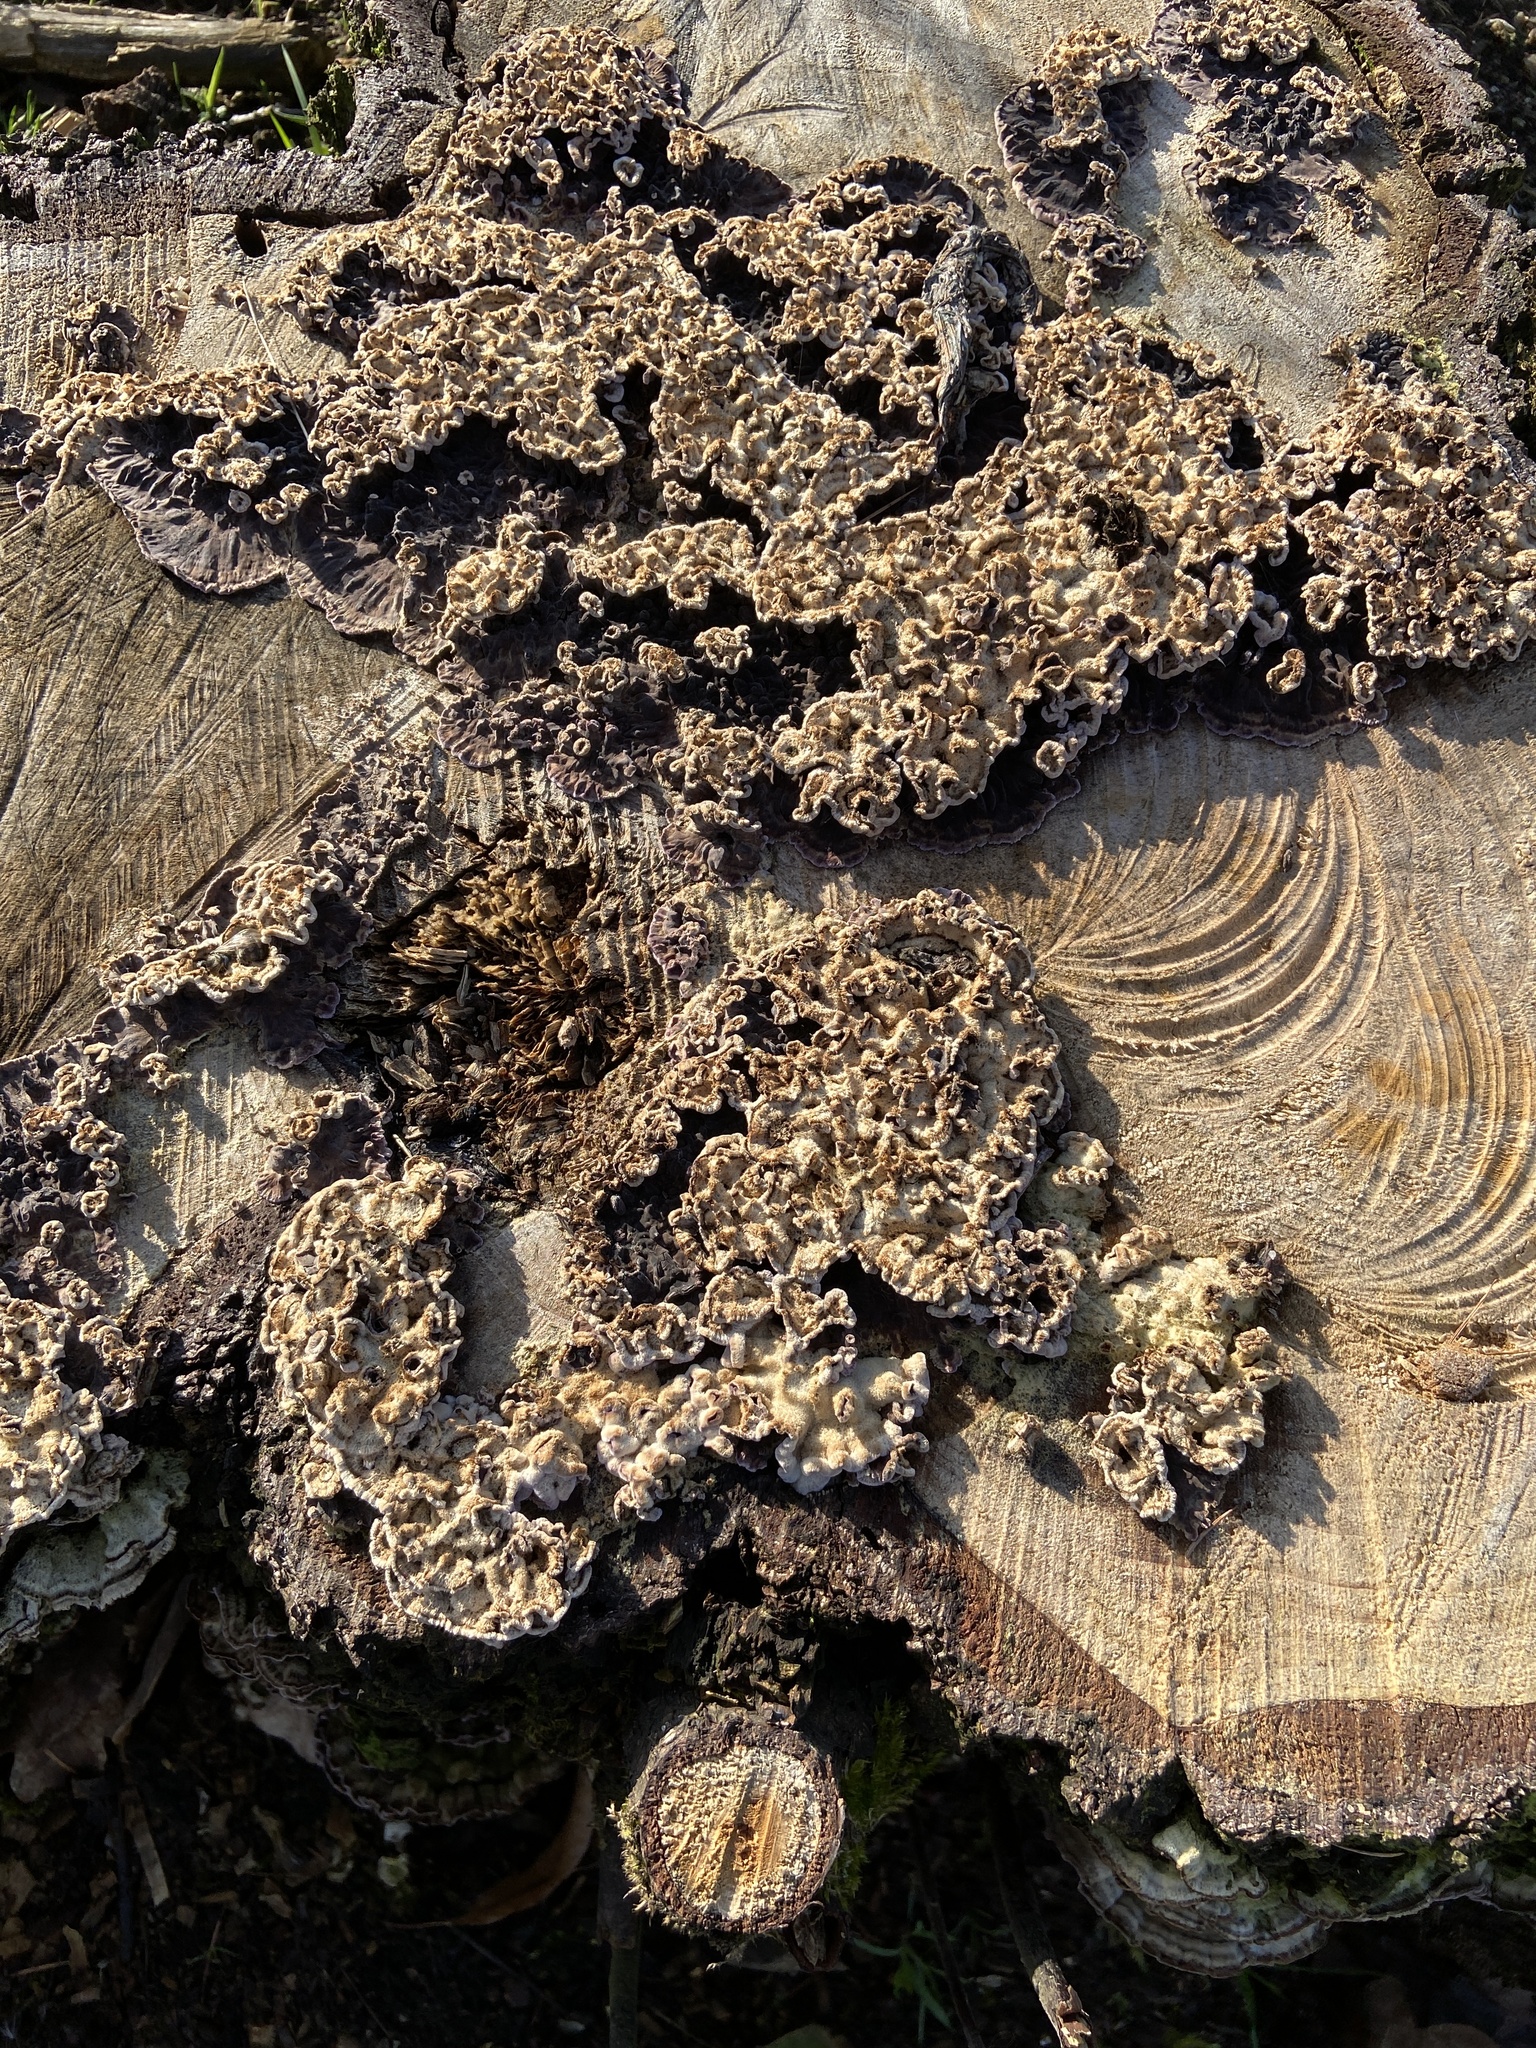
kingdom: Fungi
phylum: Basidiomycota
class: Agaricomycetes
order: Agaricales
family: Cyphellaceae
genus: Chondrostereum
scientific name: Chondrostereum purpureum
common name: Silver leaf disease
